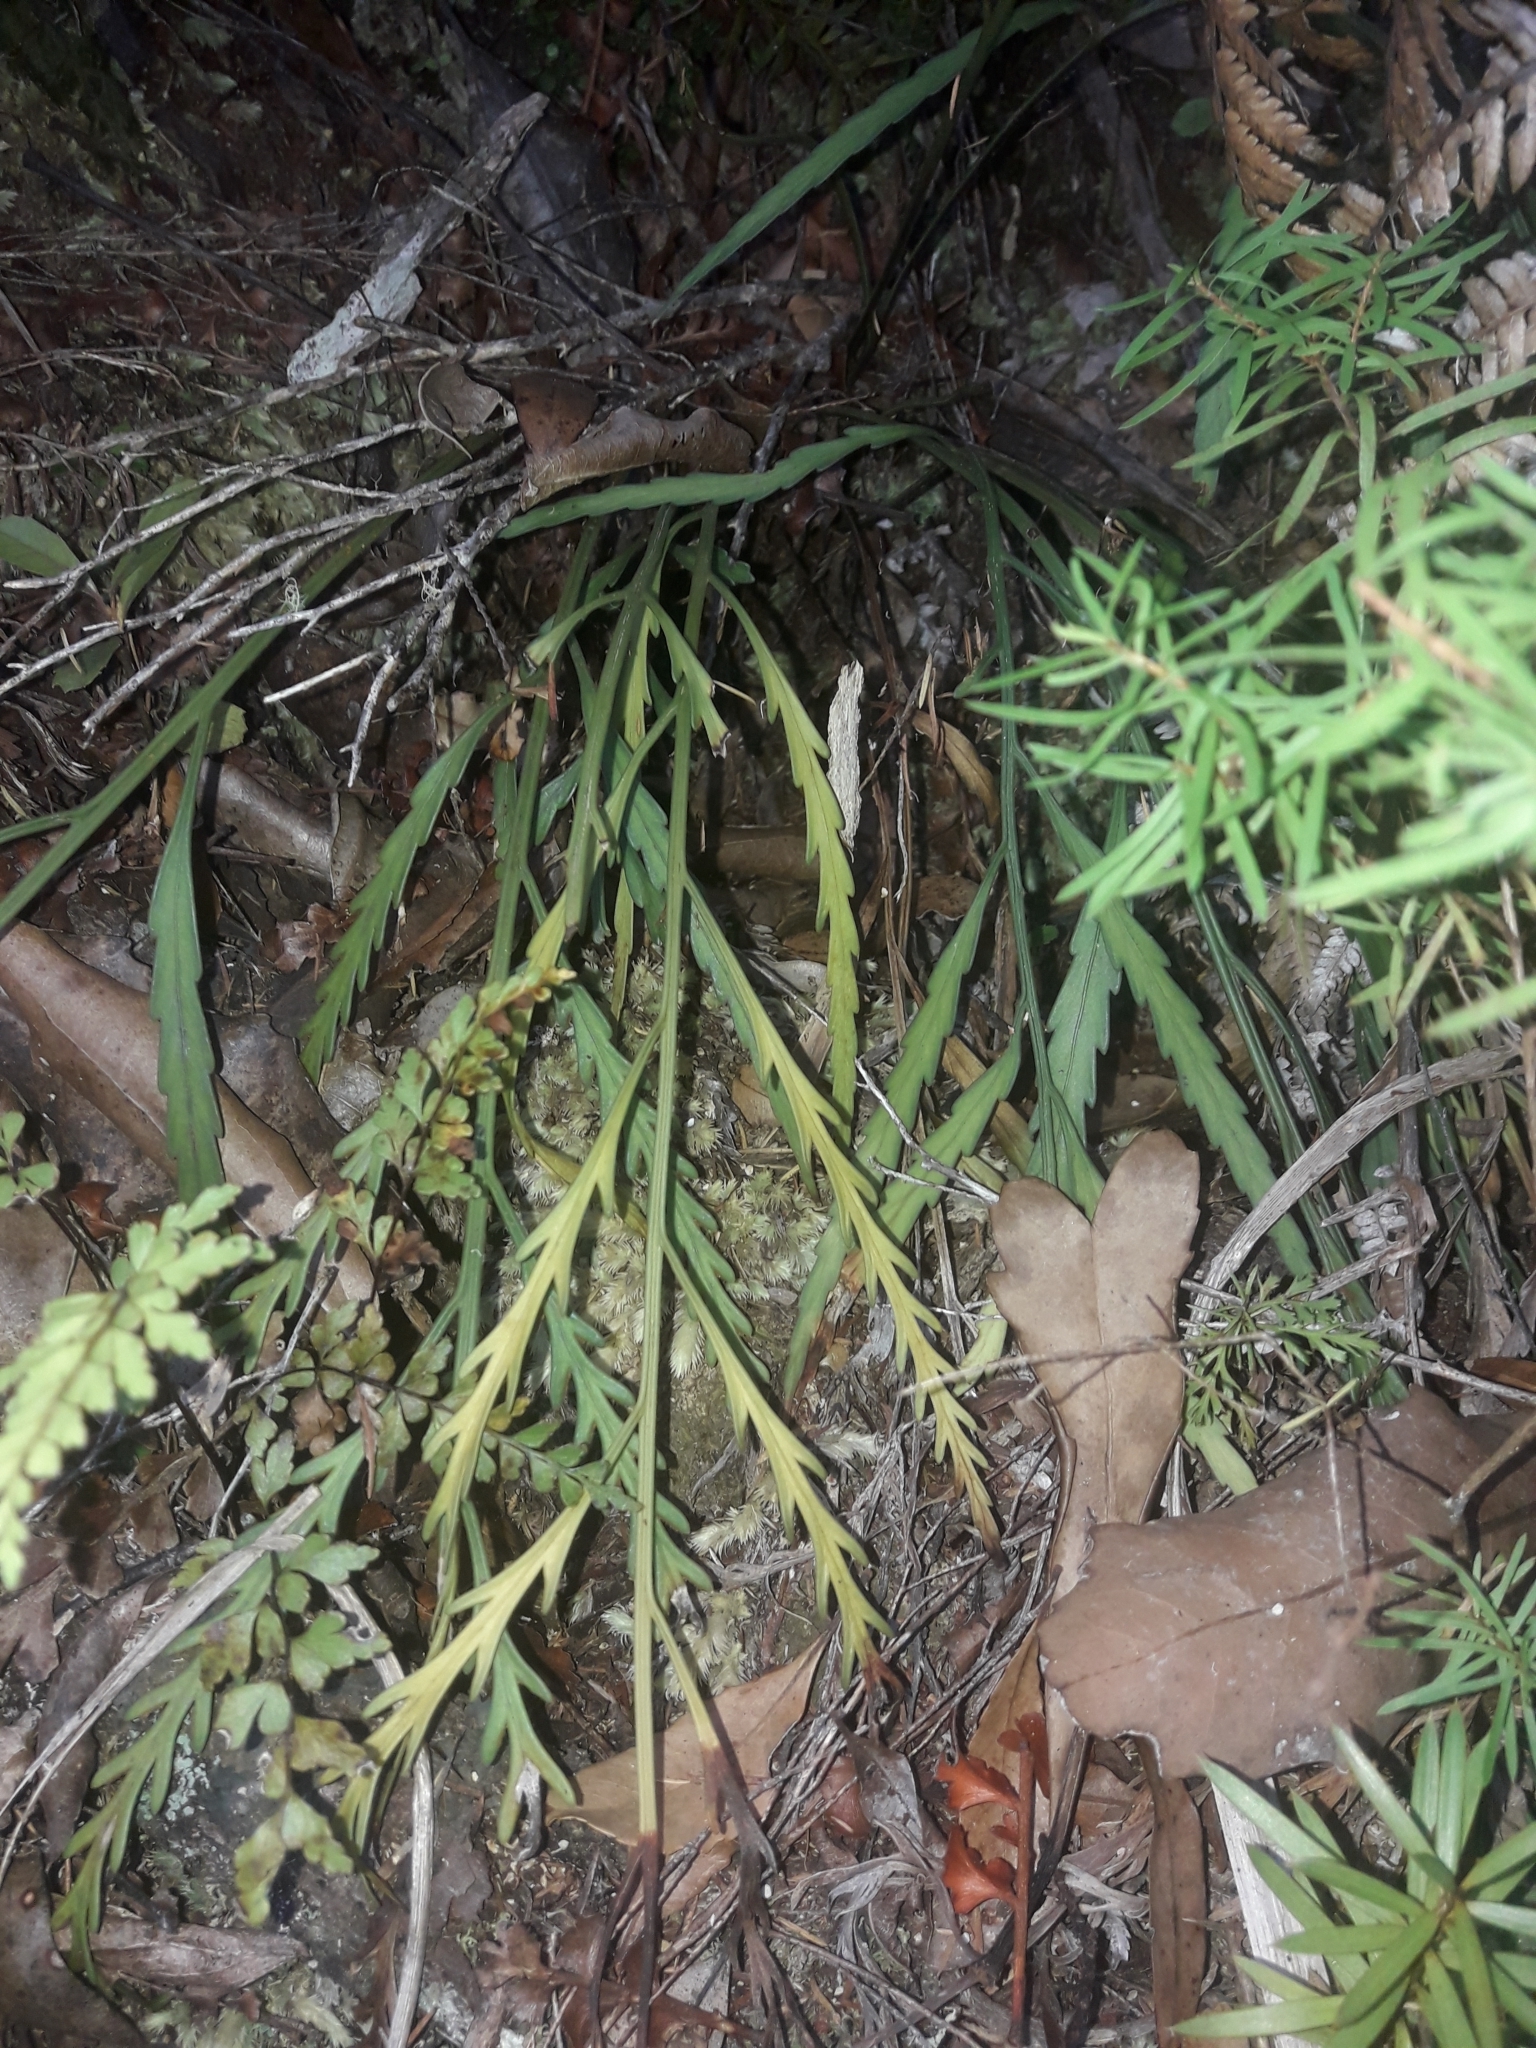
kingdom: Plantae
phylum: Tracheophyta
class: Polypodiopsida
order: Polypodiales
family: Aspleniaceae
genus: Asplenium
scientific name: Asplenium flaccidum
